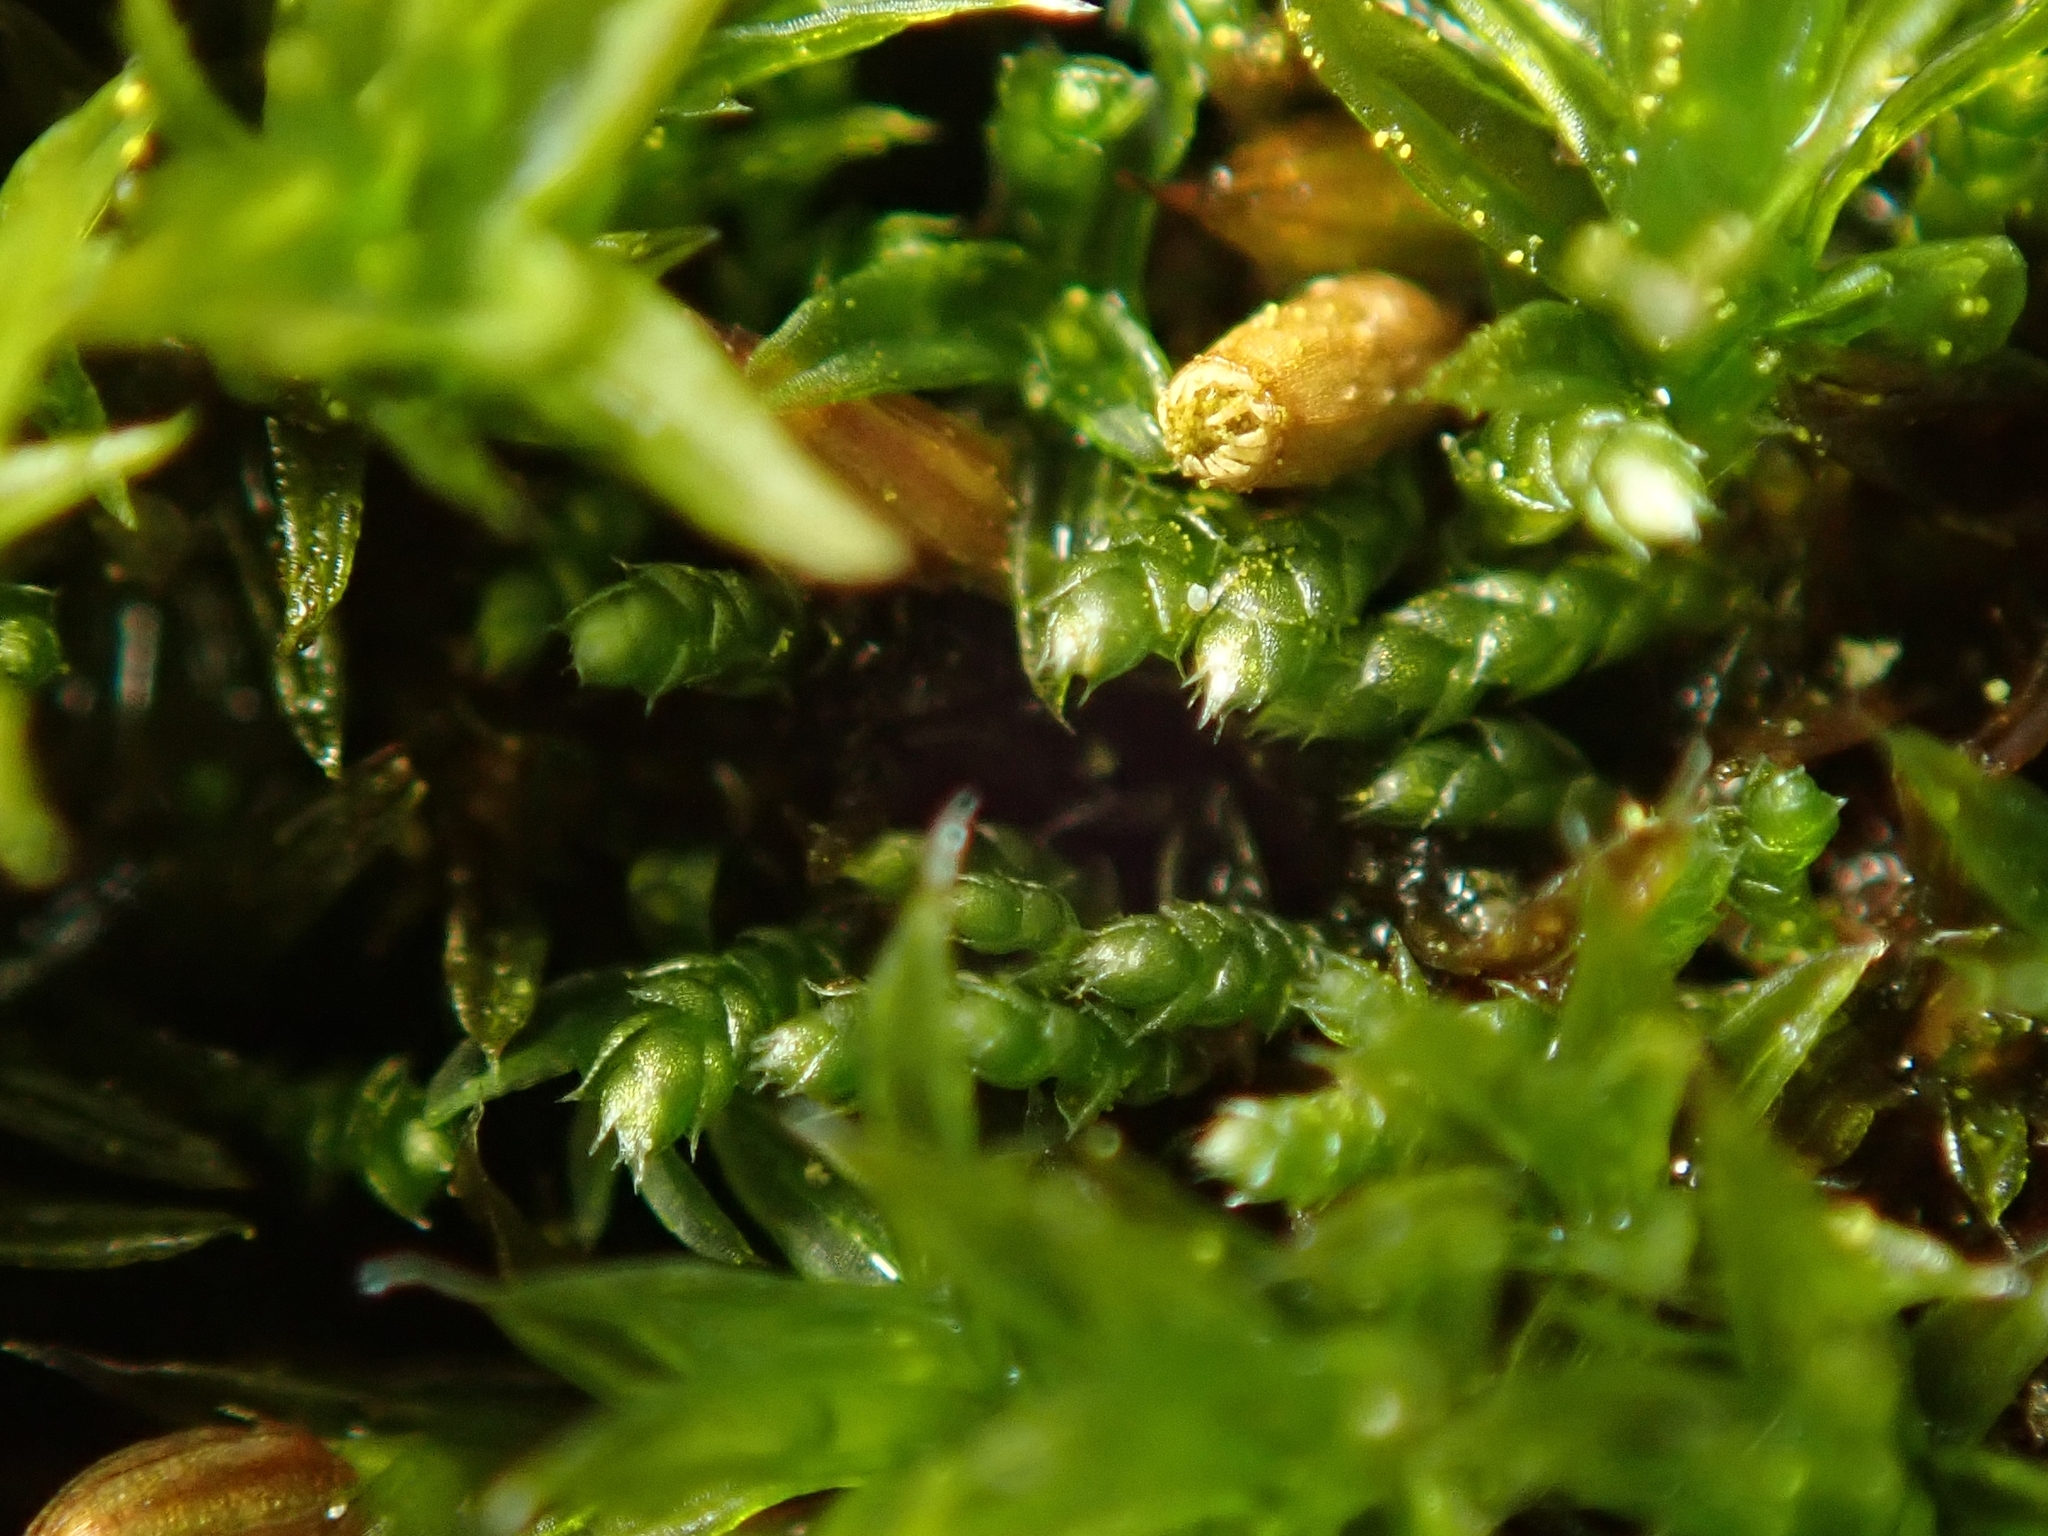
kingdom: Plantae
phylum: Bryophyta
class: Bryopsida
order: Bryales
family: Bryaceae
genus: Bryum
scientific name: Bryum argenteum
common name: Silver-moss
